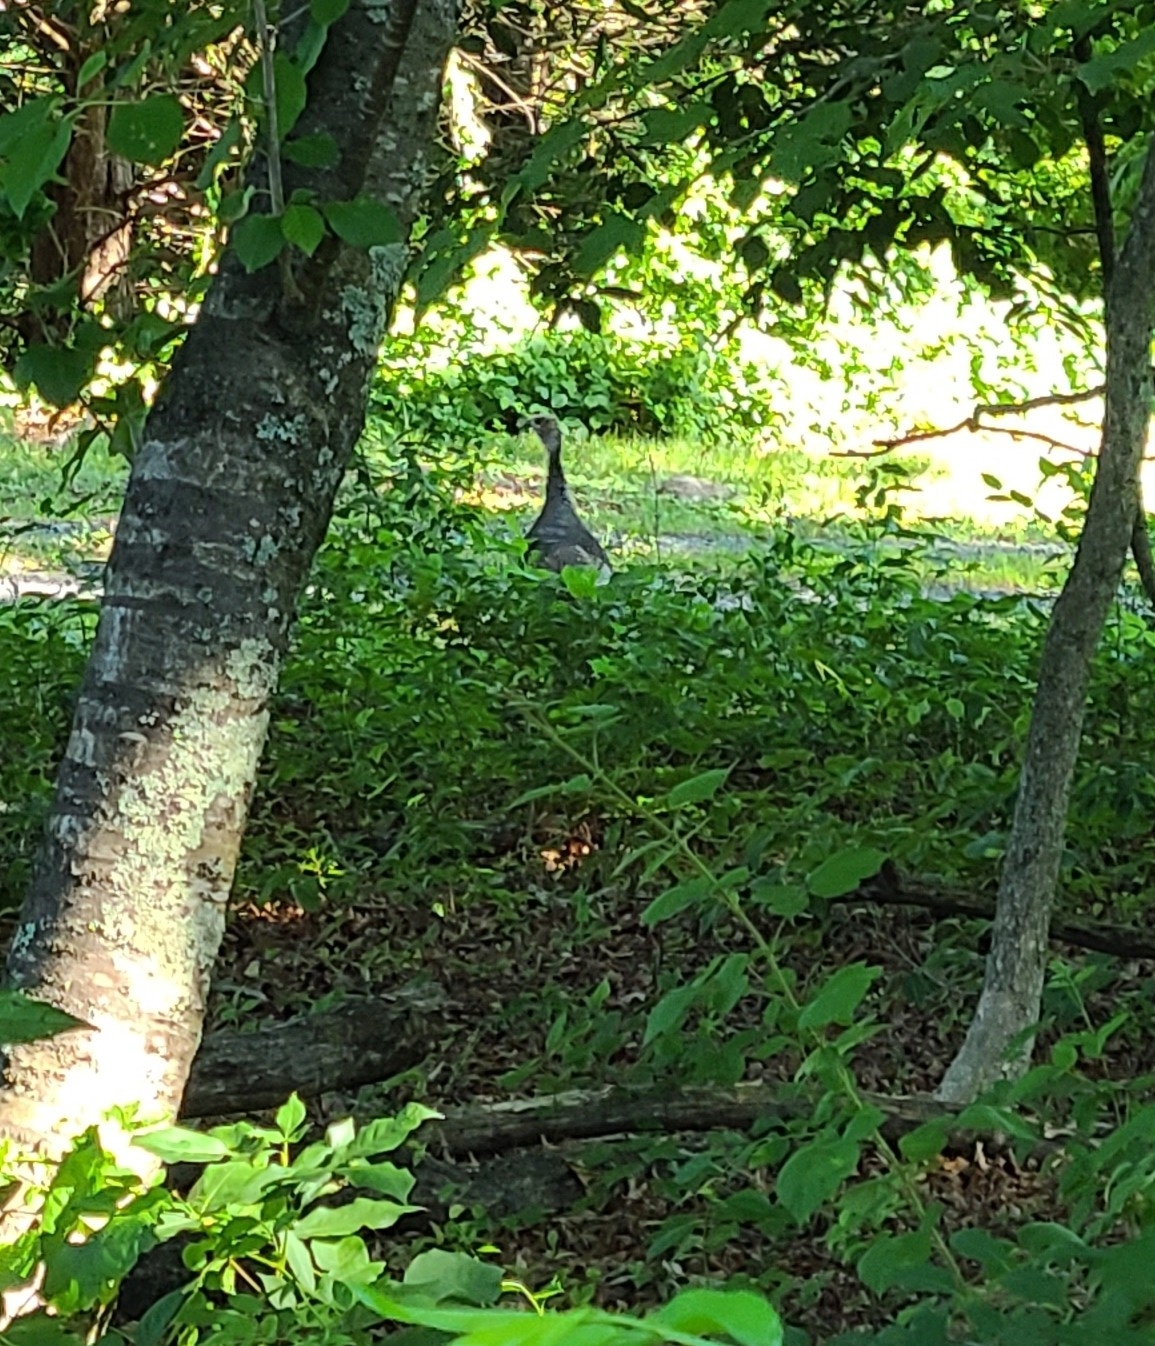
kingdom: Animalia
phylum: Chordata
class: Aves
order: Galliformes
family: Phasianidae
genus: Meleagris
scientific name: Meleagris gallopavo
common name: Wild turkey
